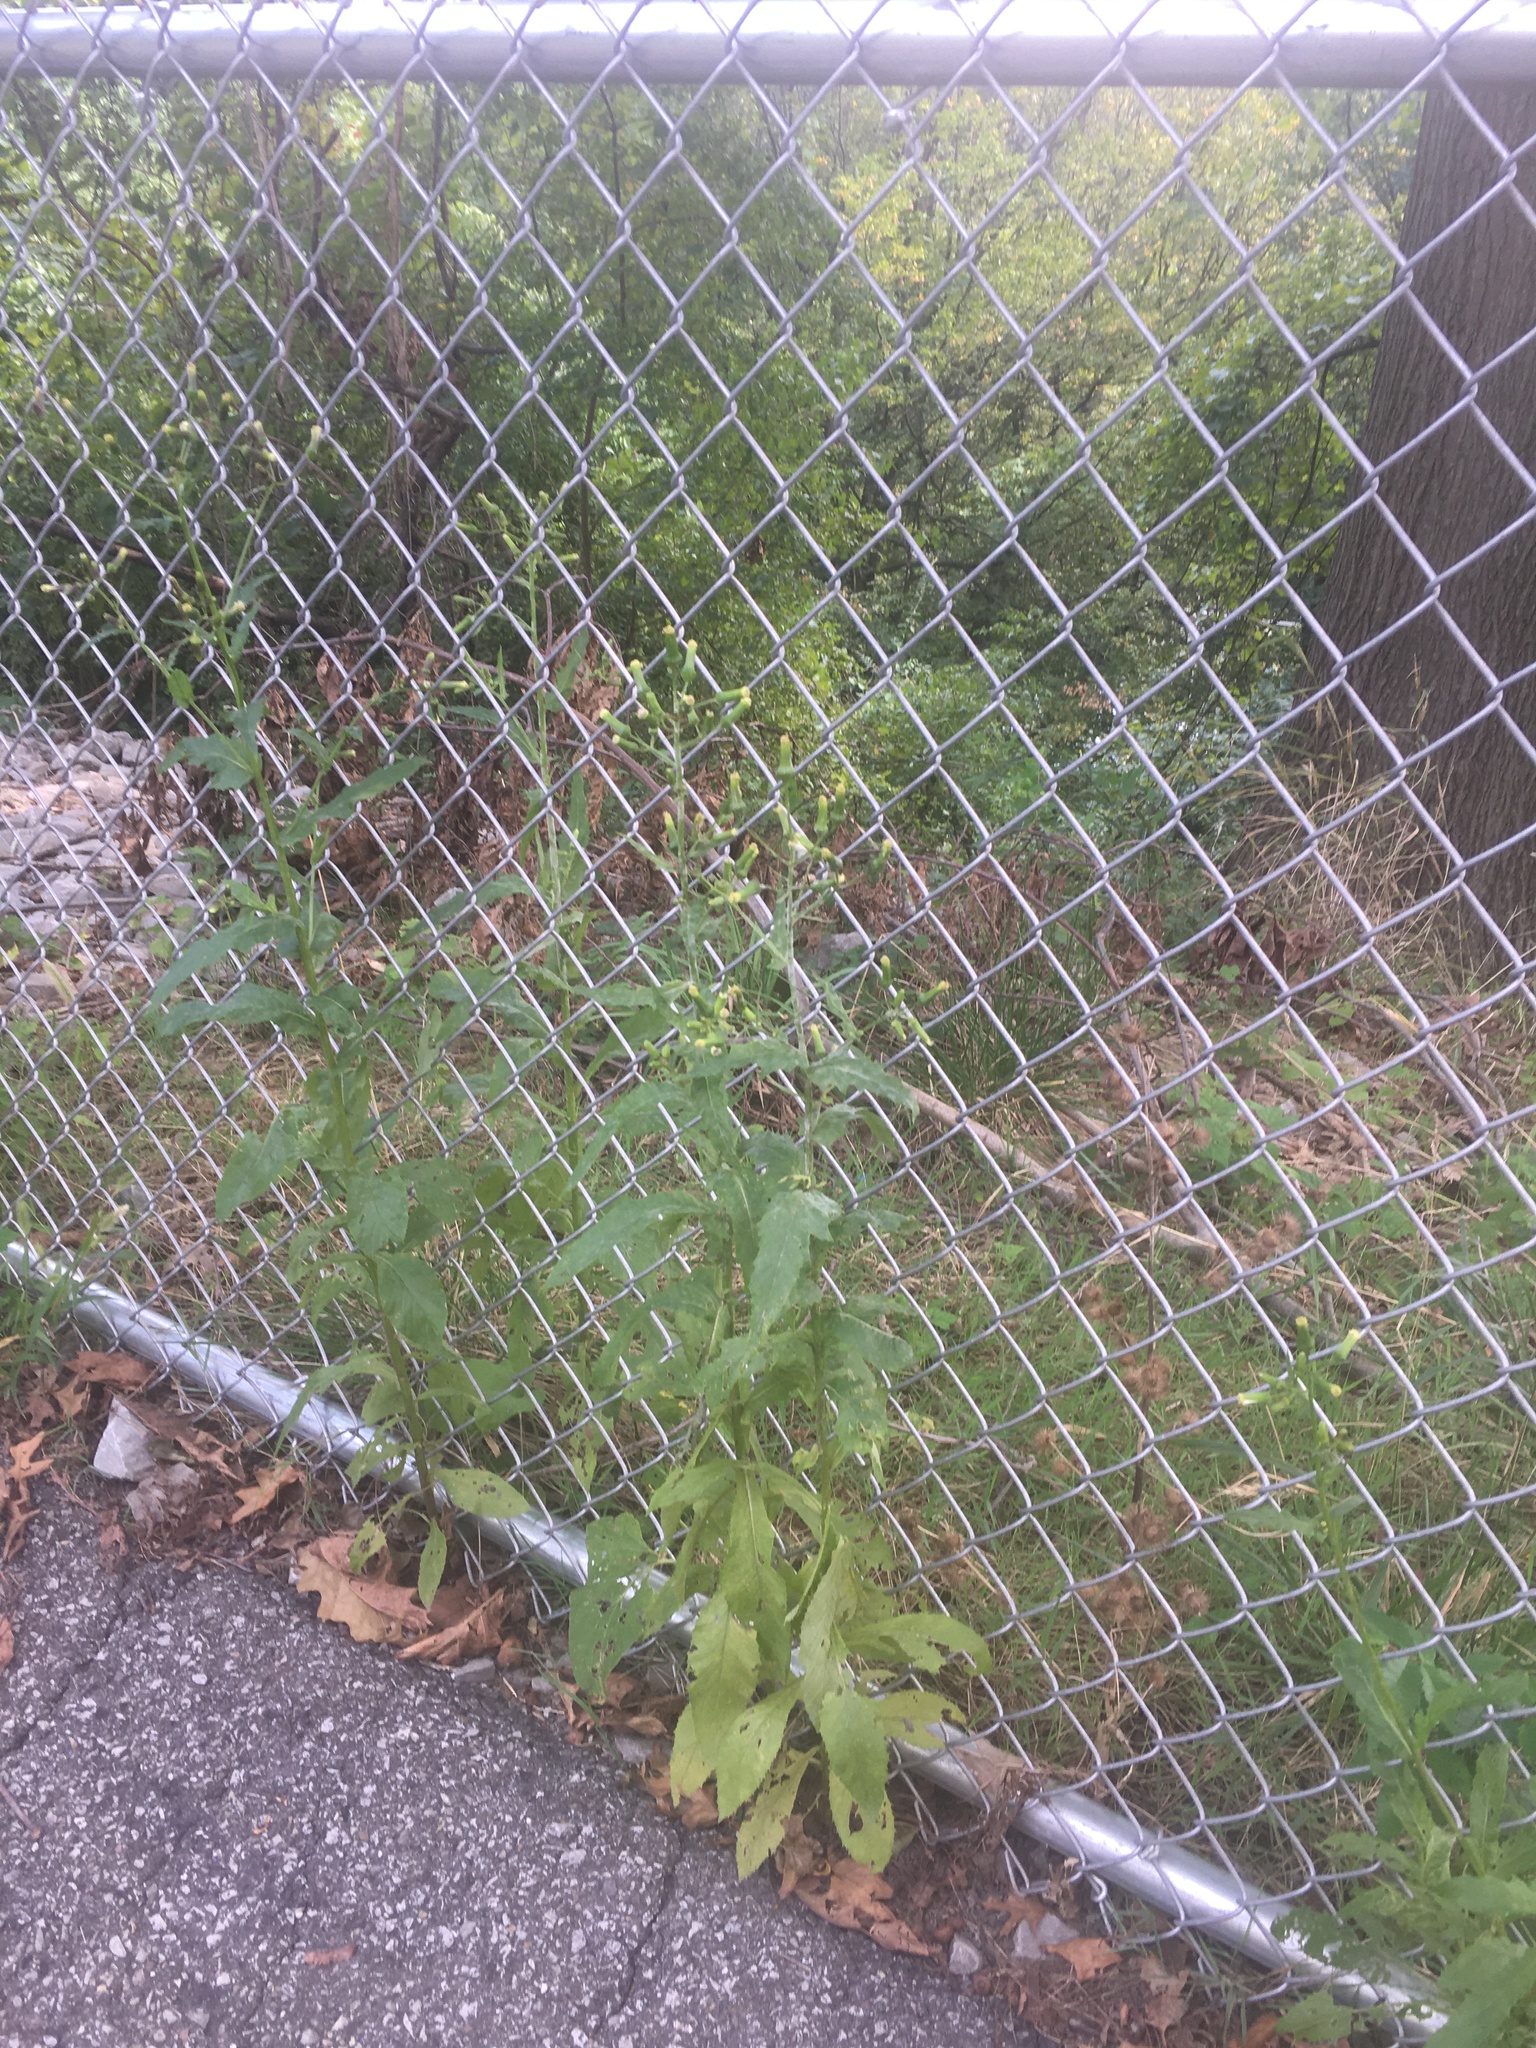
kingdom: Plantae
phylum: Tracheophyta
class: Magnoliopsida
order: Asterales
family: Asteraceae
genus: Erechtites
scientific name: Erechtites hieraciifolius
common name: American burnweed
